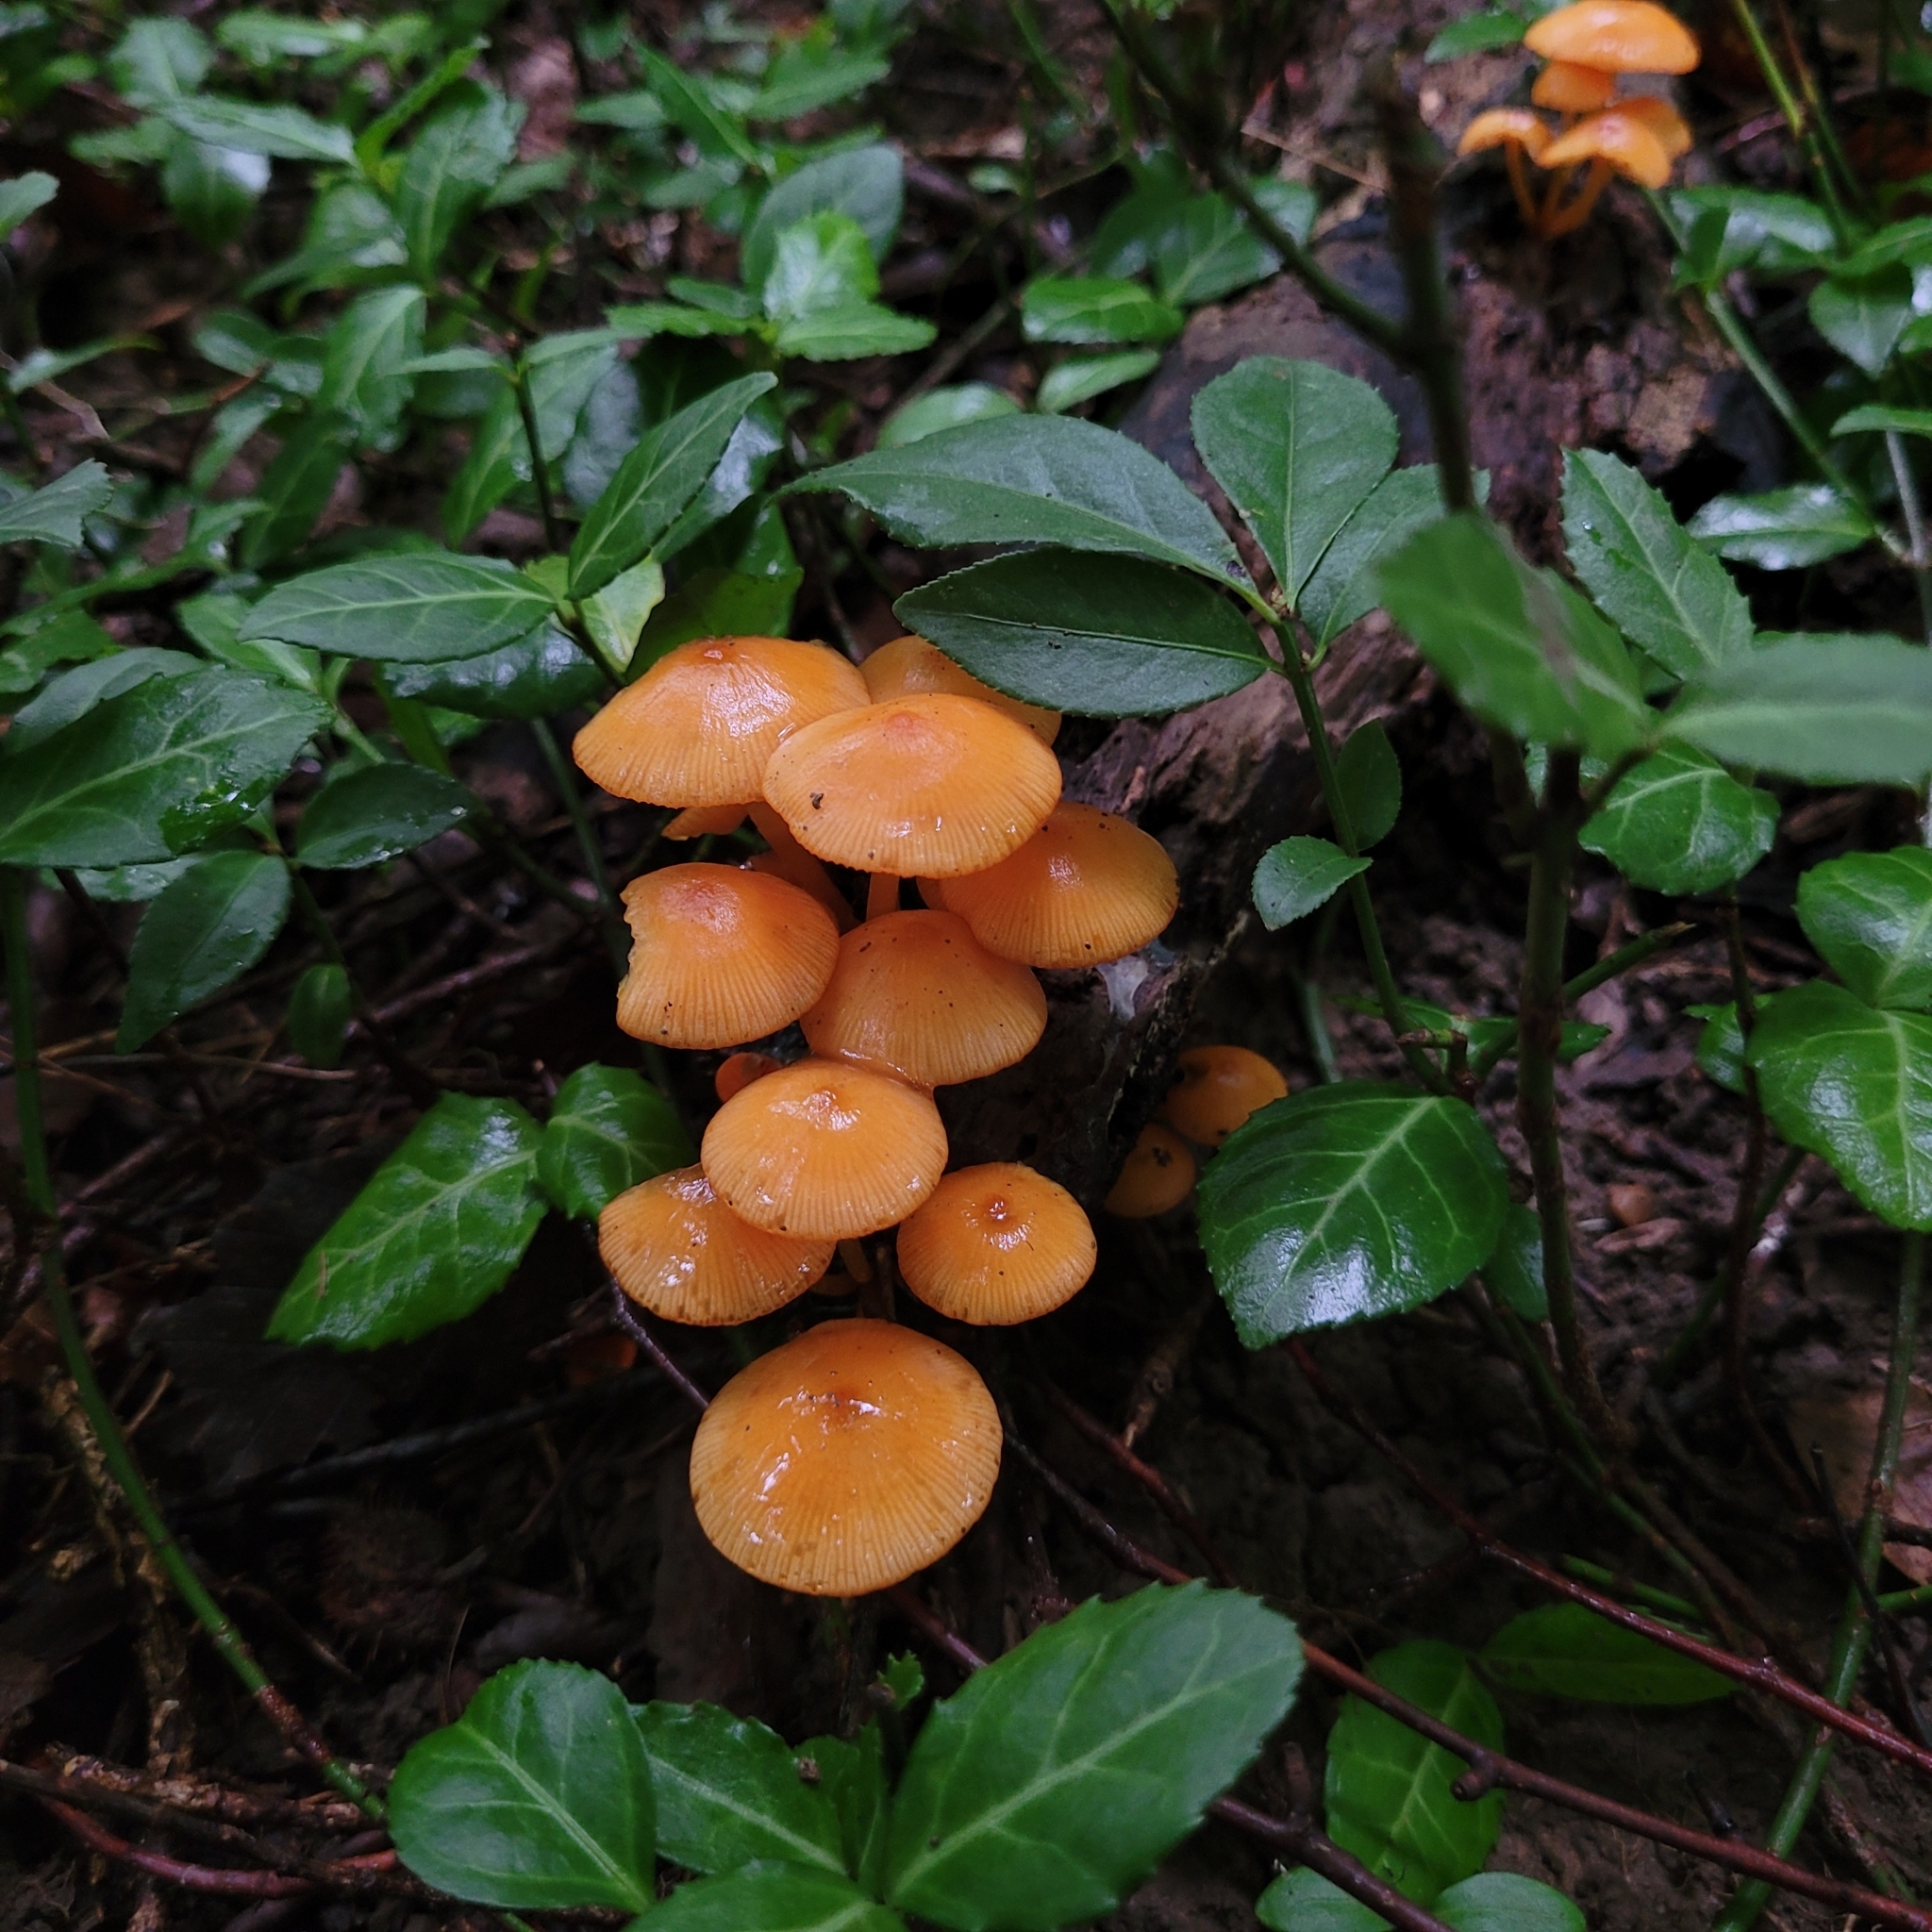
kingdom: Fungi
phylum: Basidiomycota
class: Agaricomycetes
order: Agaricales
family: Mycenaceae
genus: Mycena
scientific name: Mycena leaiana
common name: Orange mycena
